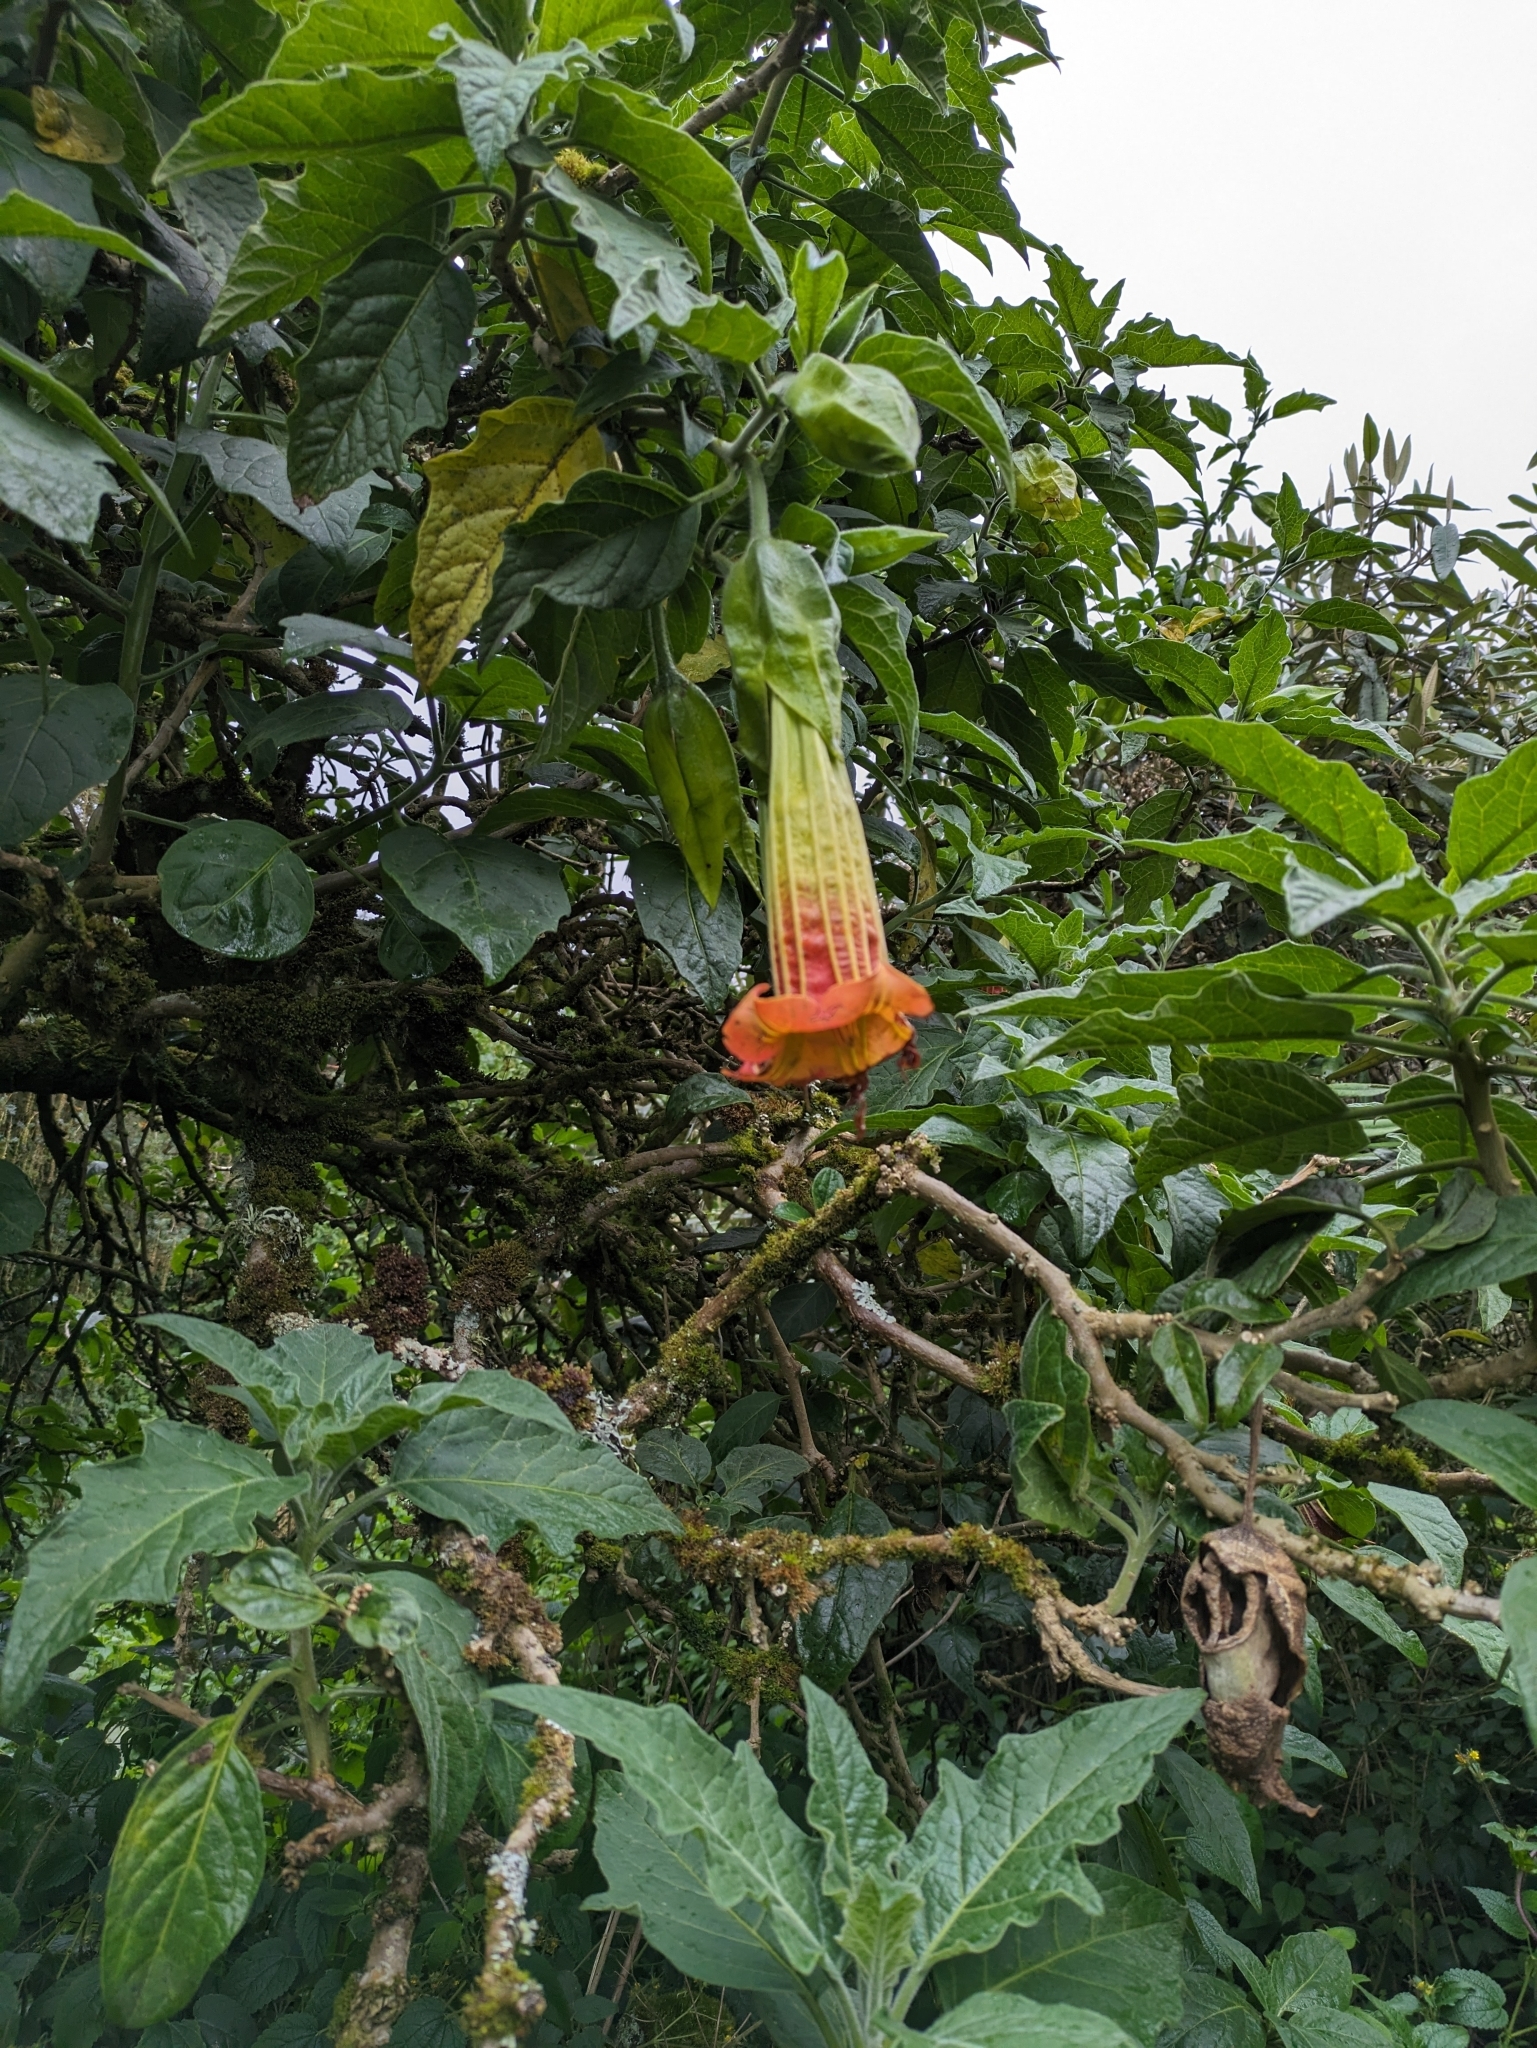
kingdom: Plantae
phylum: Tracheophyta
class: Magnoliopsida
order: Solanales
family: Solanaceae
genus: Brugmansia
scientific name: Brugmansia sanguinea
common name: Red floripontio
